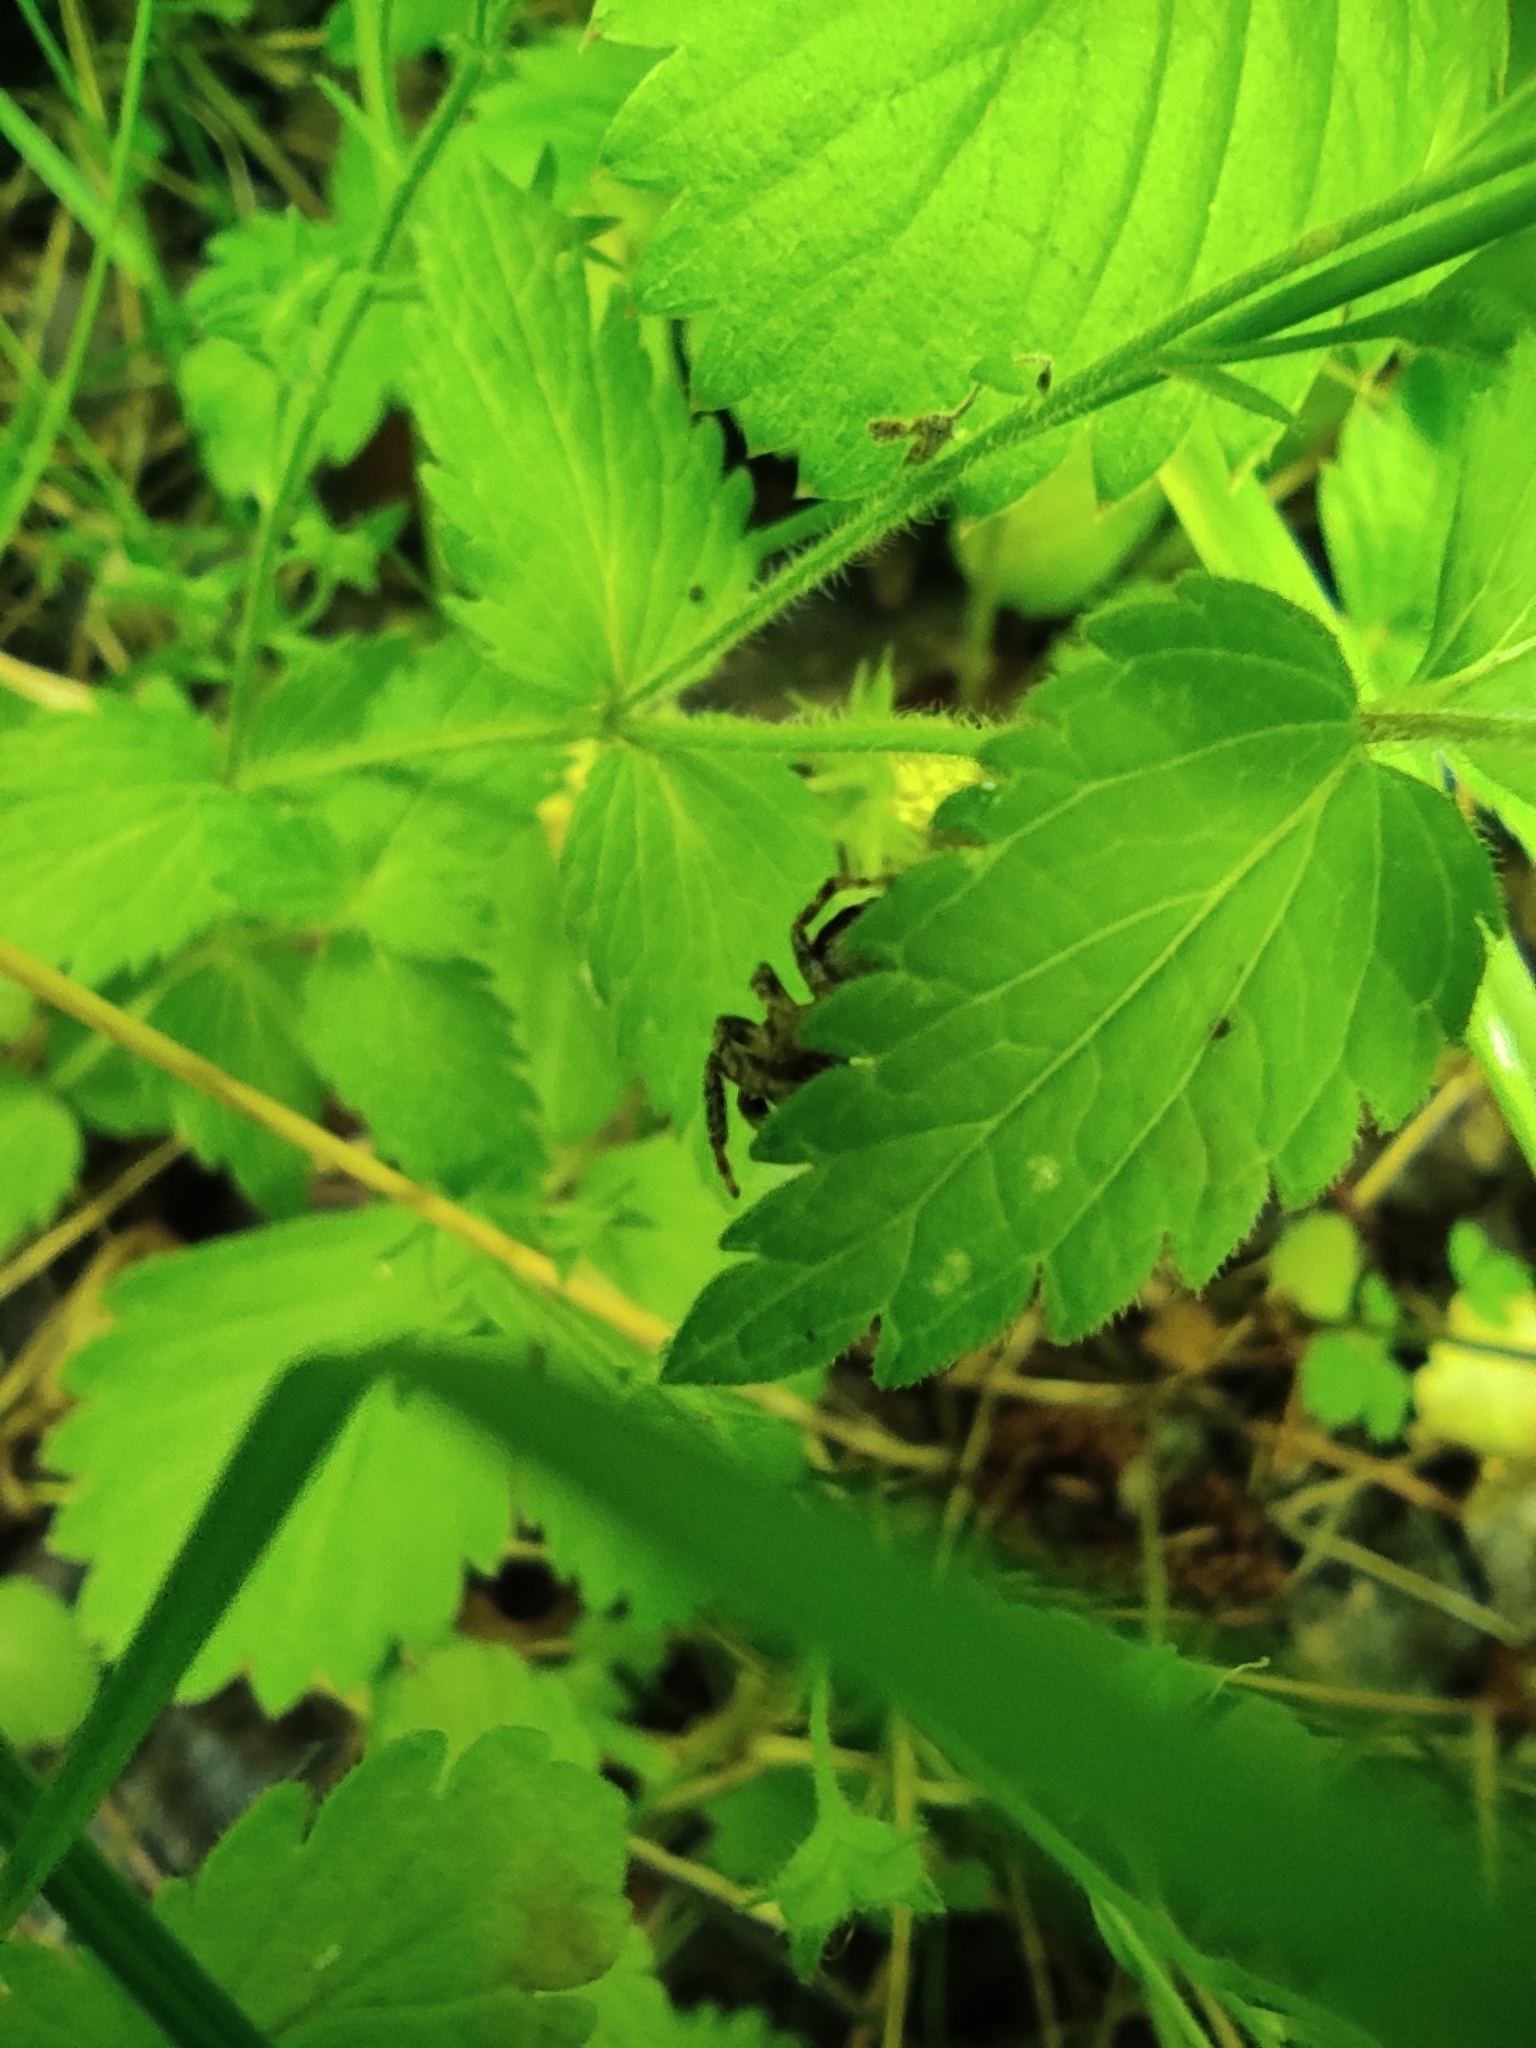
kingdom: Animalia
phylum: Arthropoda
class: Arachnida
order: Araneae
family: Salticidae
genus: Evarcha
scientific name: Evarcha falcata
